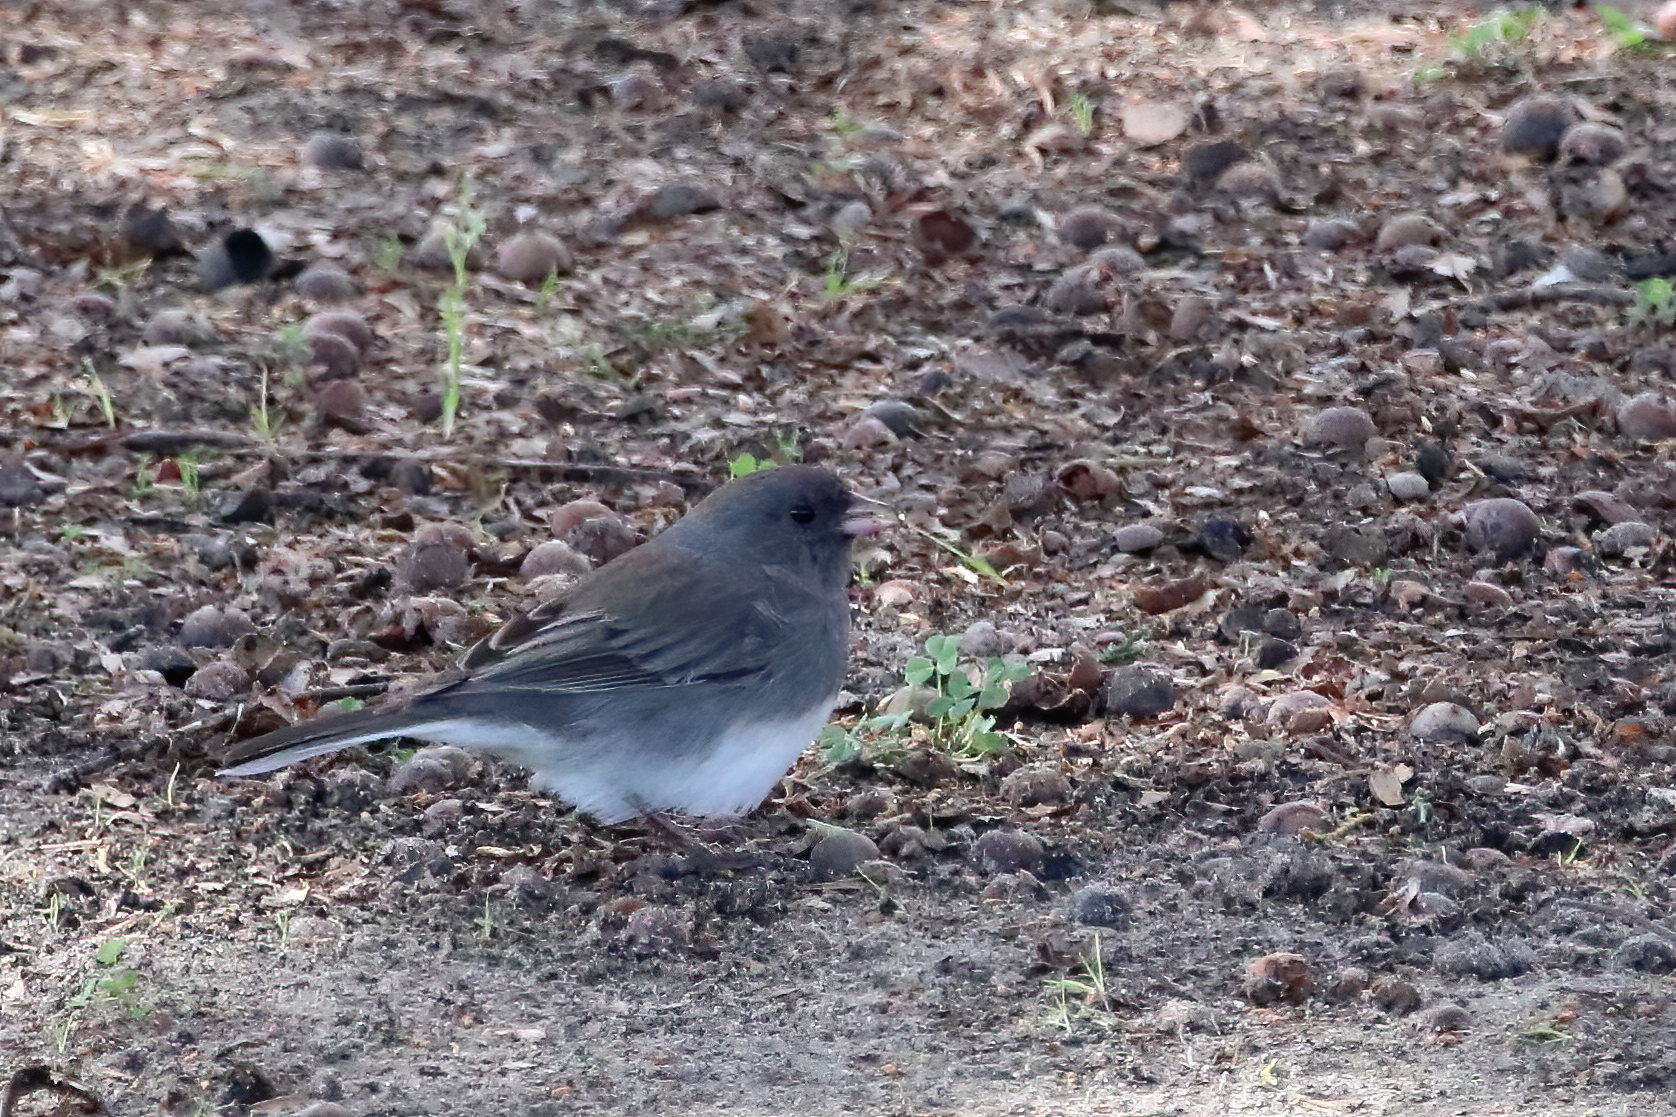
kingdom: Animalia
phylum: Chordata
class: Aves
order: Passeriformes
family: Passerellidae
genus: Junco
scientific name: Junco hyemalis
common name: Dark-eyed junco
